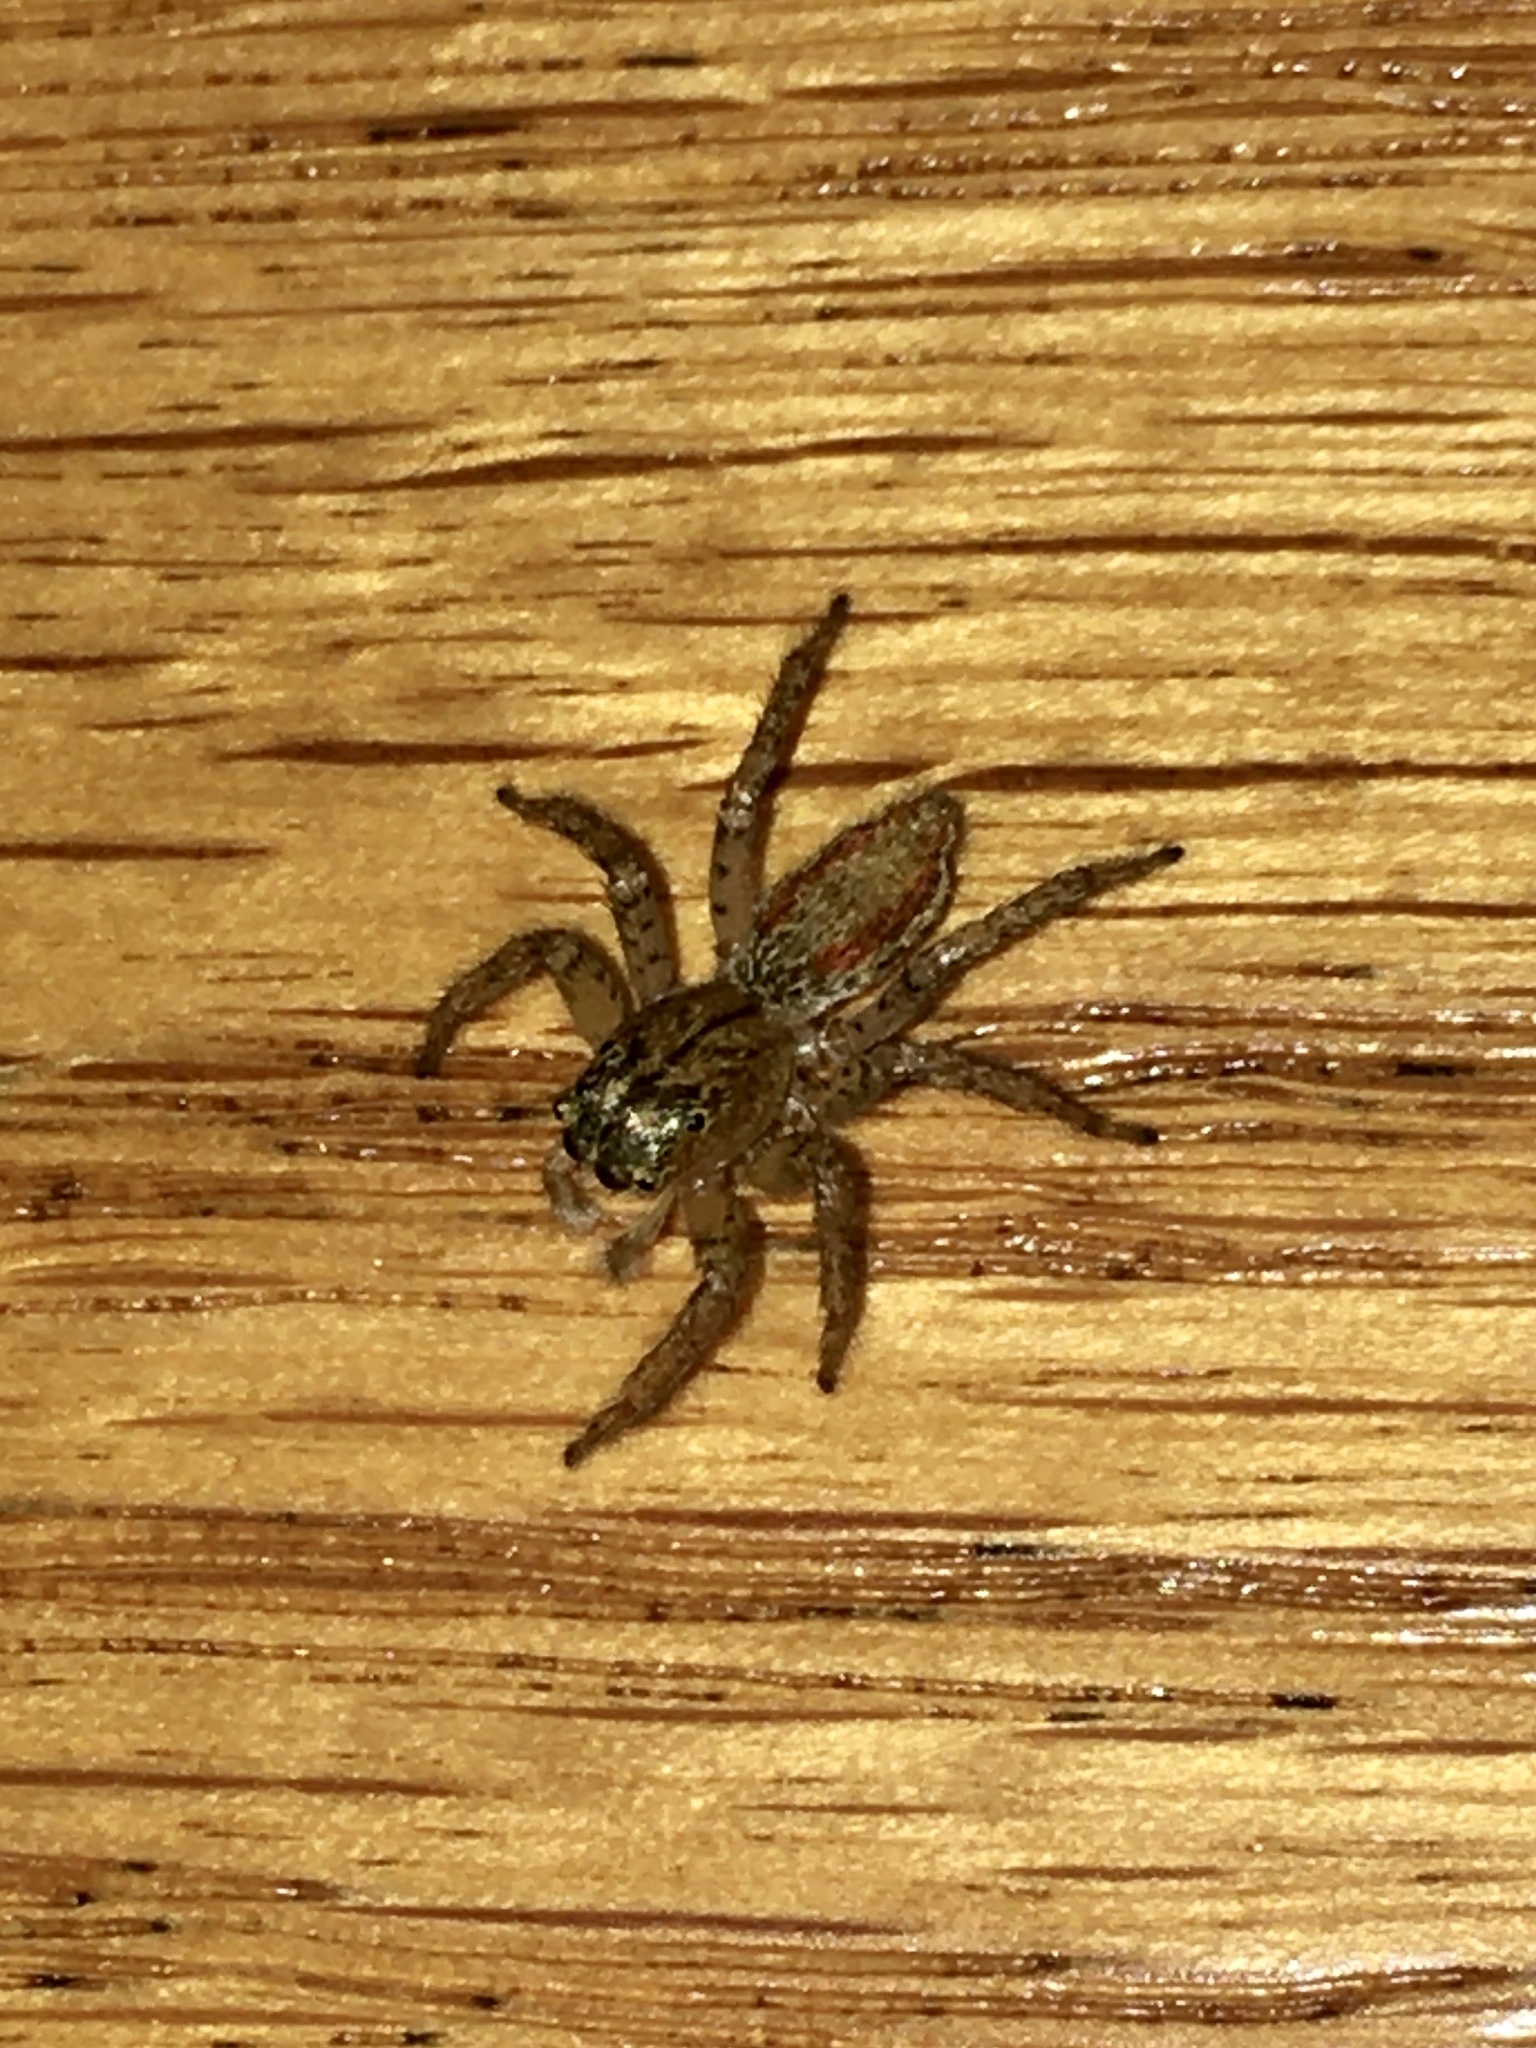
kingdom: Animalia
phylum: Arthropoda
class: Arachnida
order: Araneae
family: Salticidae
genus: Maevia
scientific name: Maevia inclemens
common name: Dimorphic jumper
